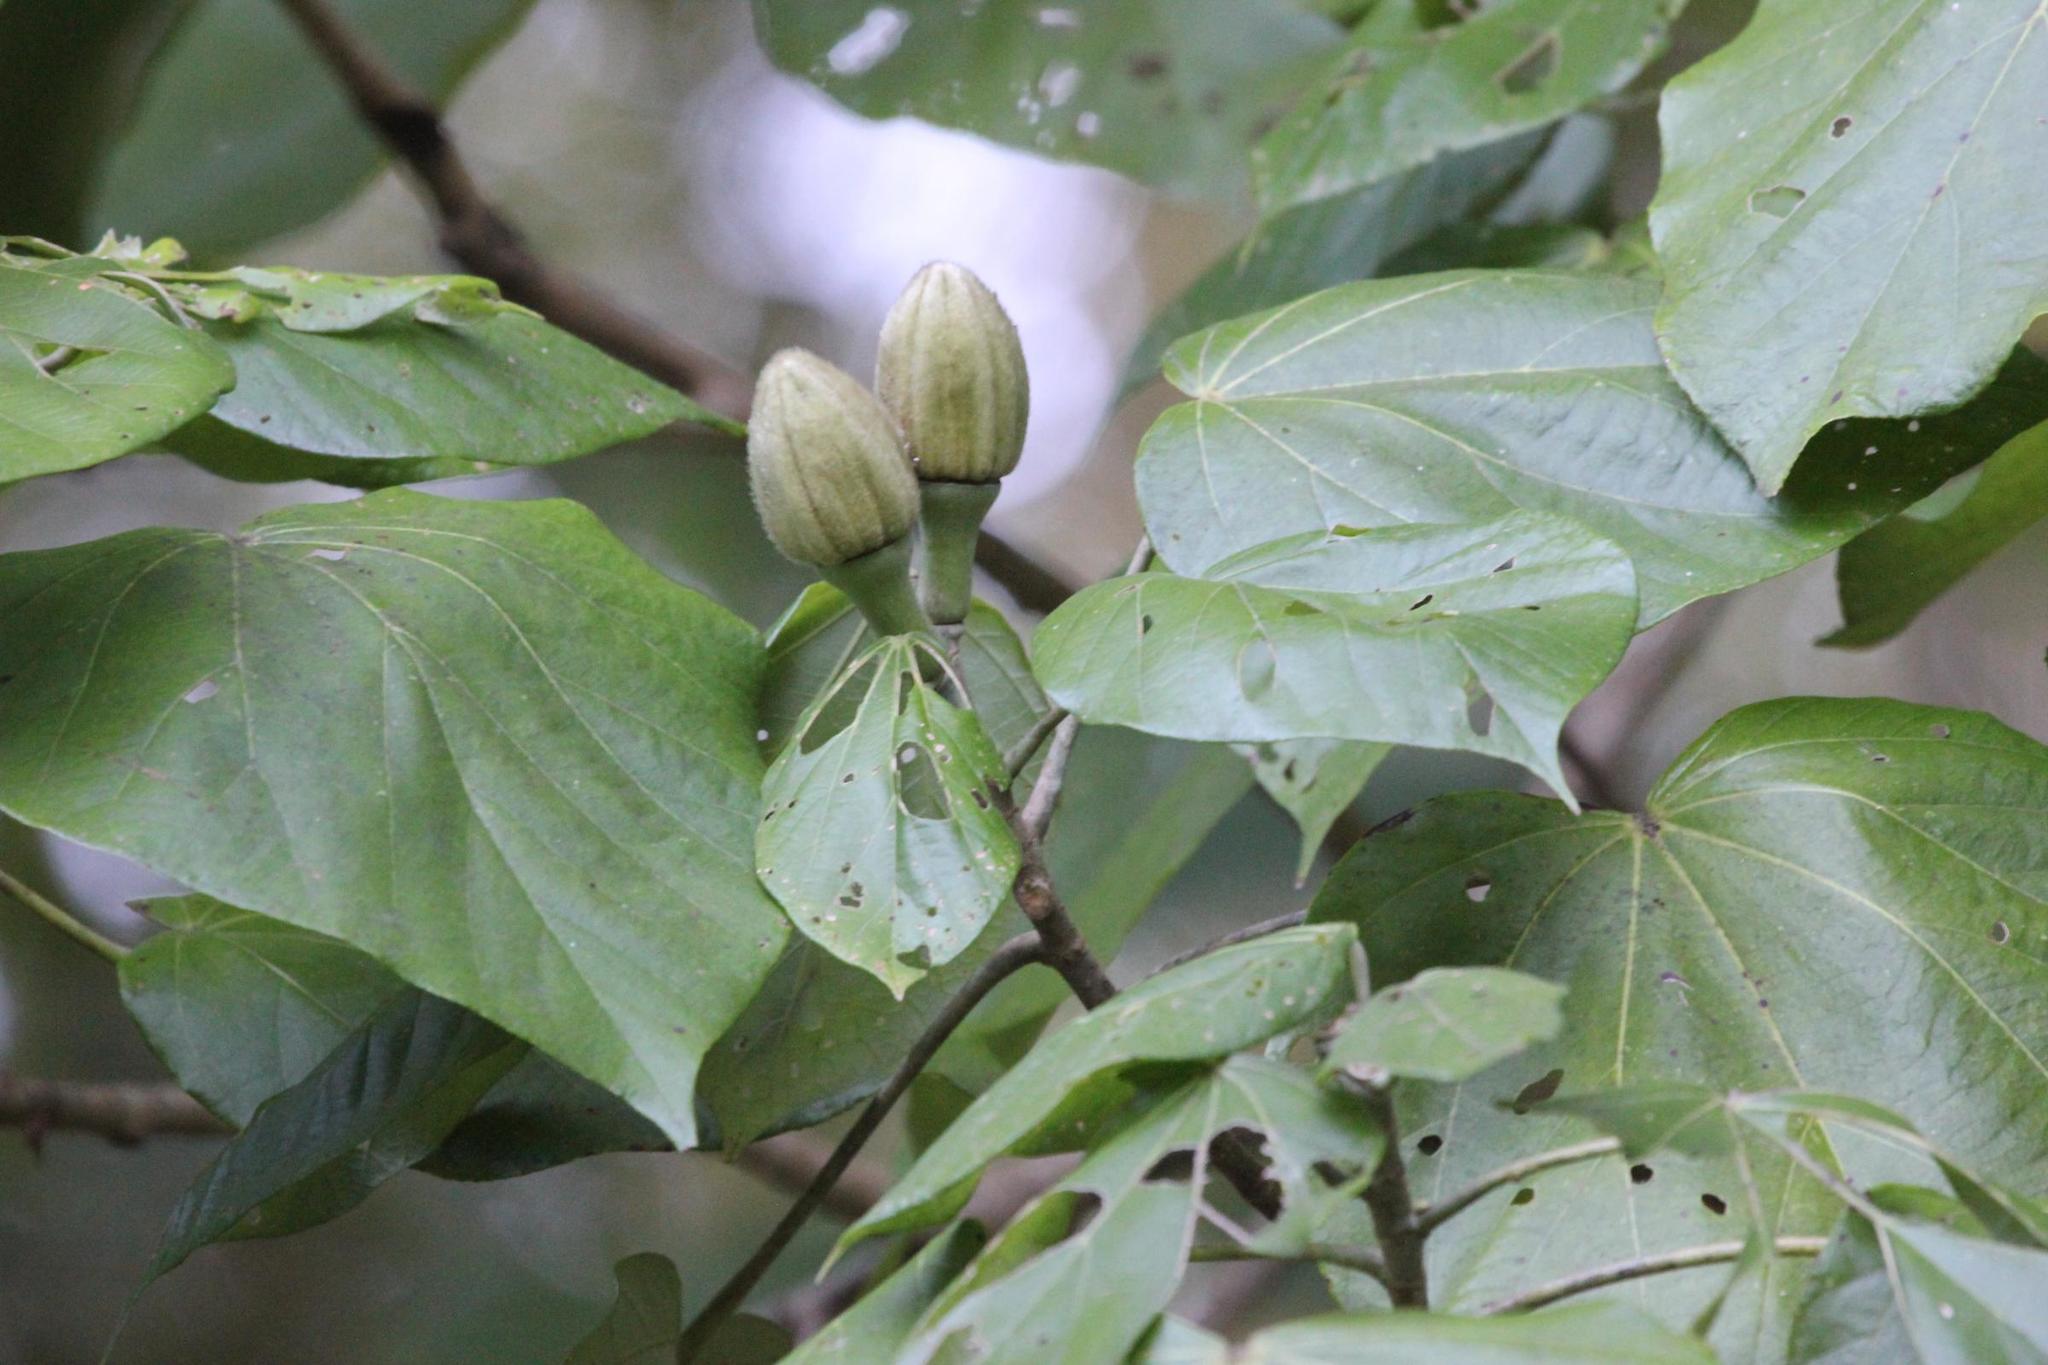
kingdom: Plantae
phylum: Tracheophyta
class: Magnoliopsida
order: Malvales
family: Malvaceae
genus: Talipariti
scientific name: Talipariti
